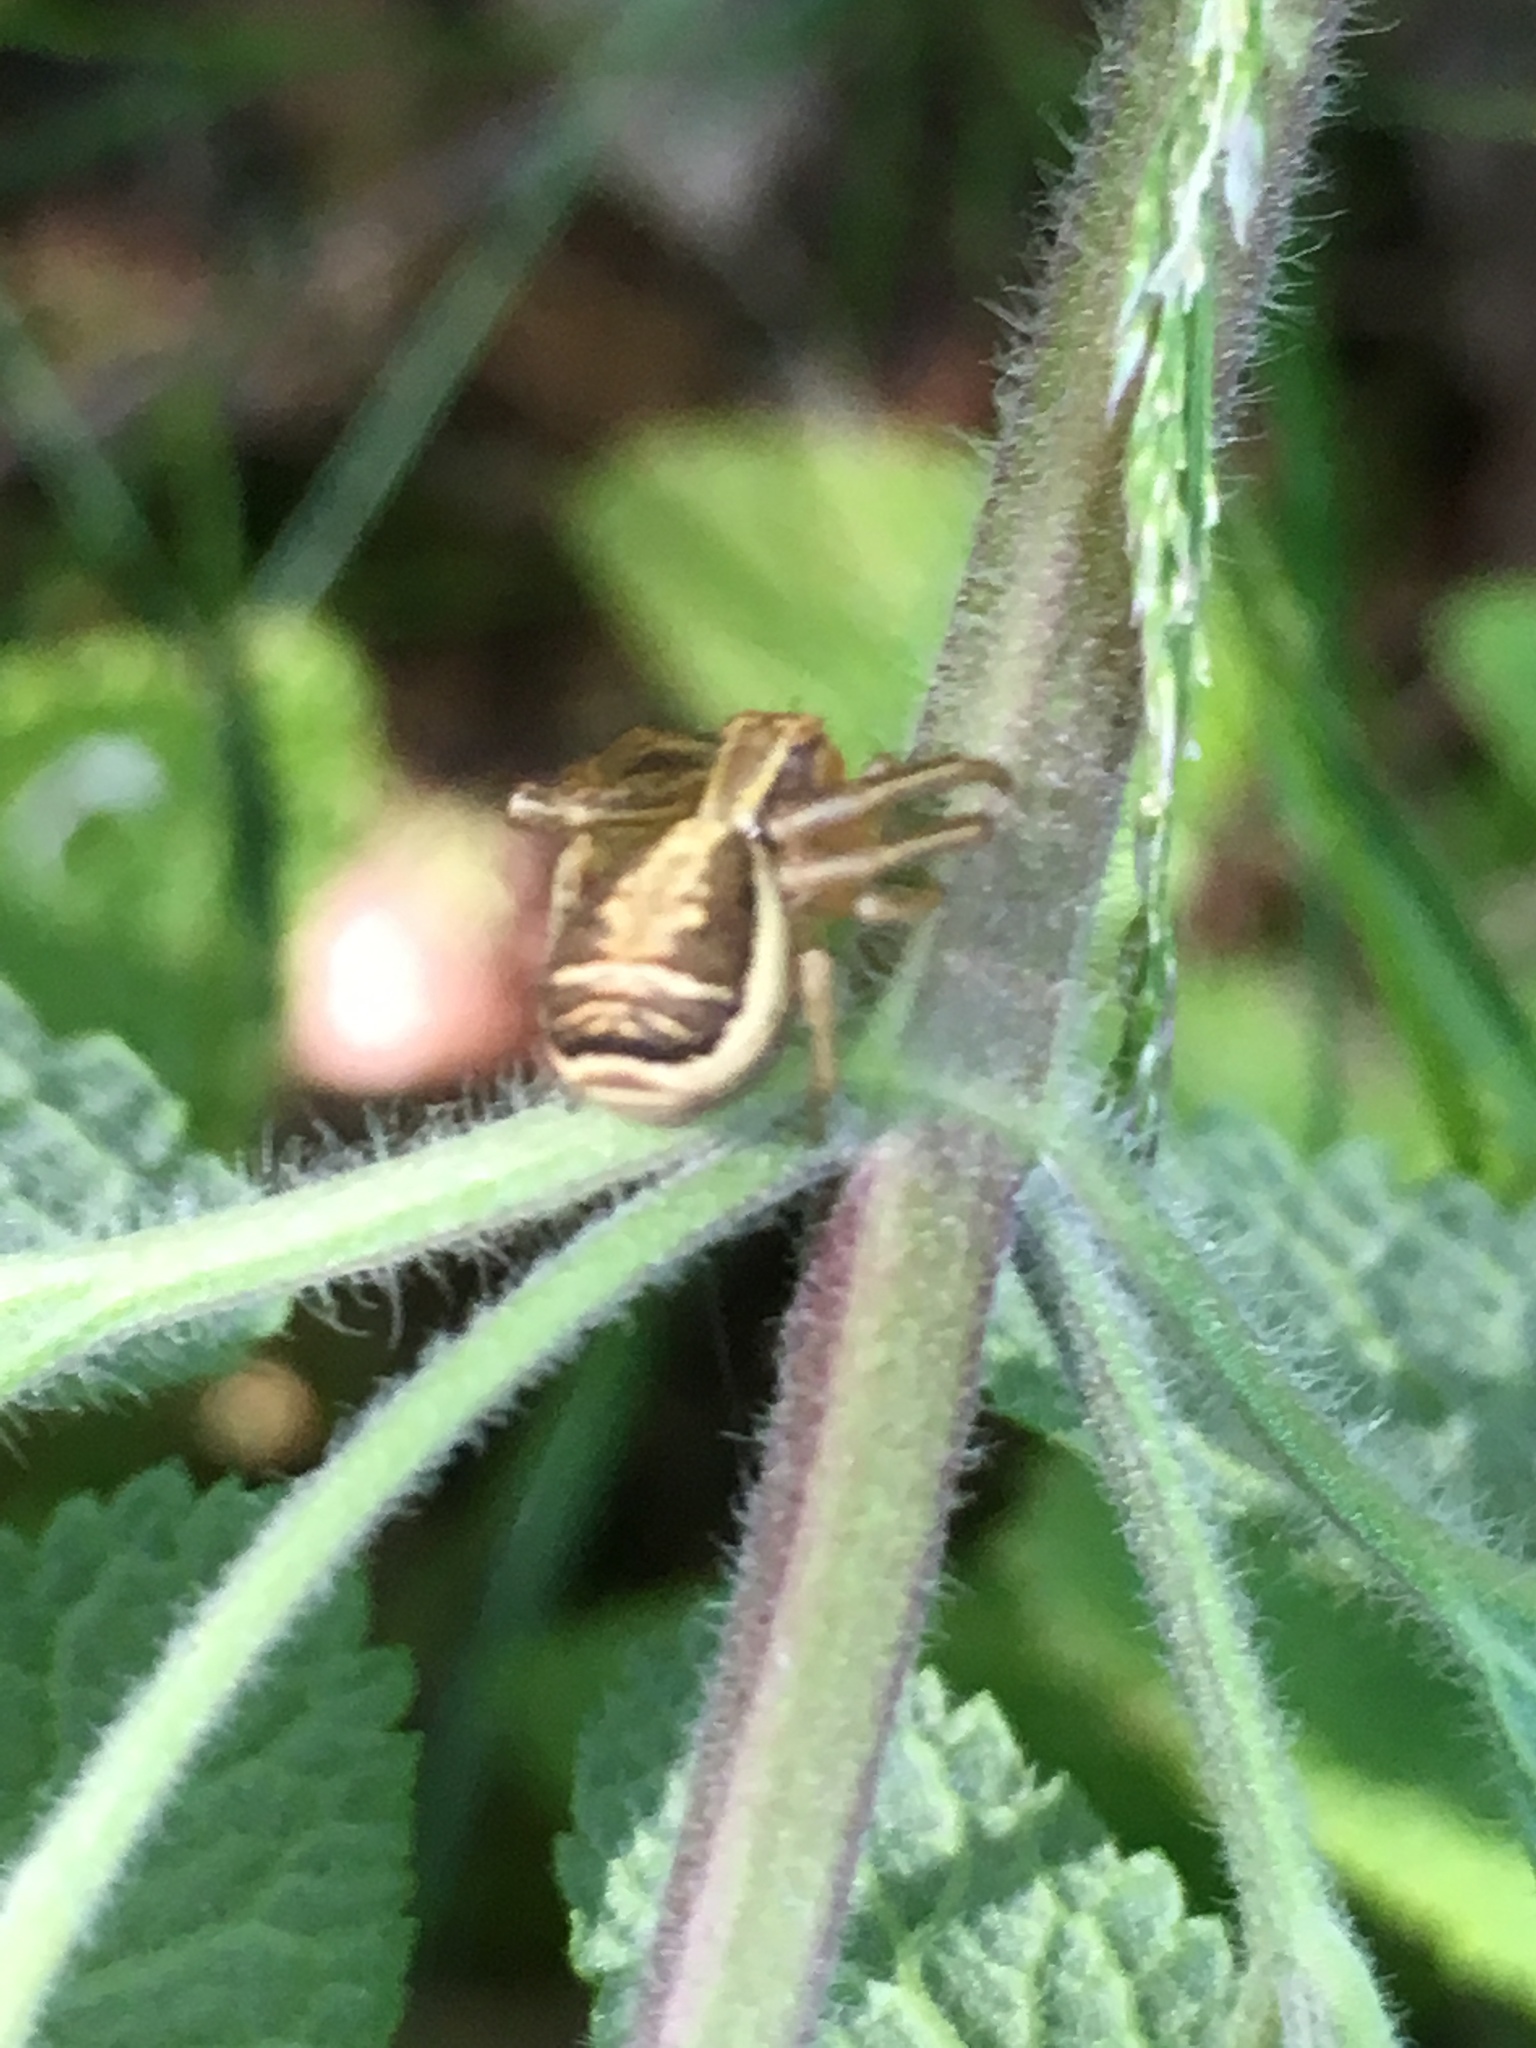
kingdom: Animalia
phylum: Arthropoda
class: Arachnida
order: Araneae
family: Thomisidae
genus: Xysticus
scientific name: Xysticus ulmi
